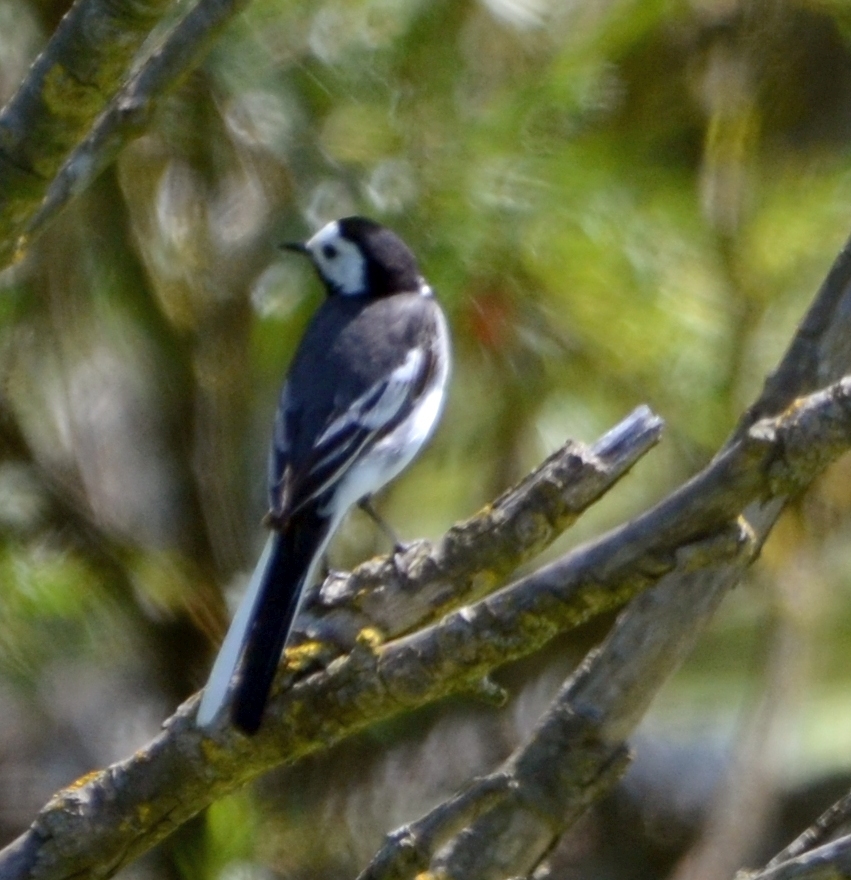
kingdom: Animalia
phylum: Chordata
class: Aves
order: Passeriformes
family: Motacillidae
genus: Motacilla
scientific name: Motacilla alba
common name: White wagtail
